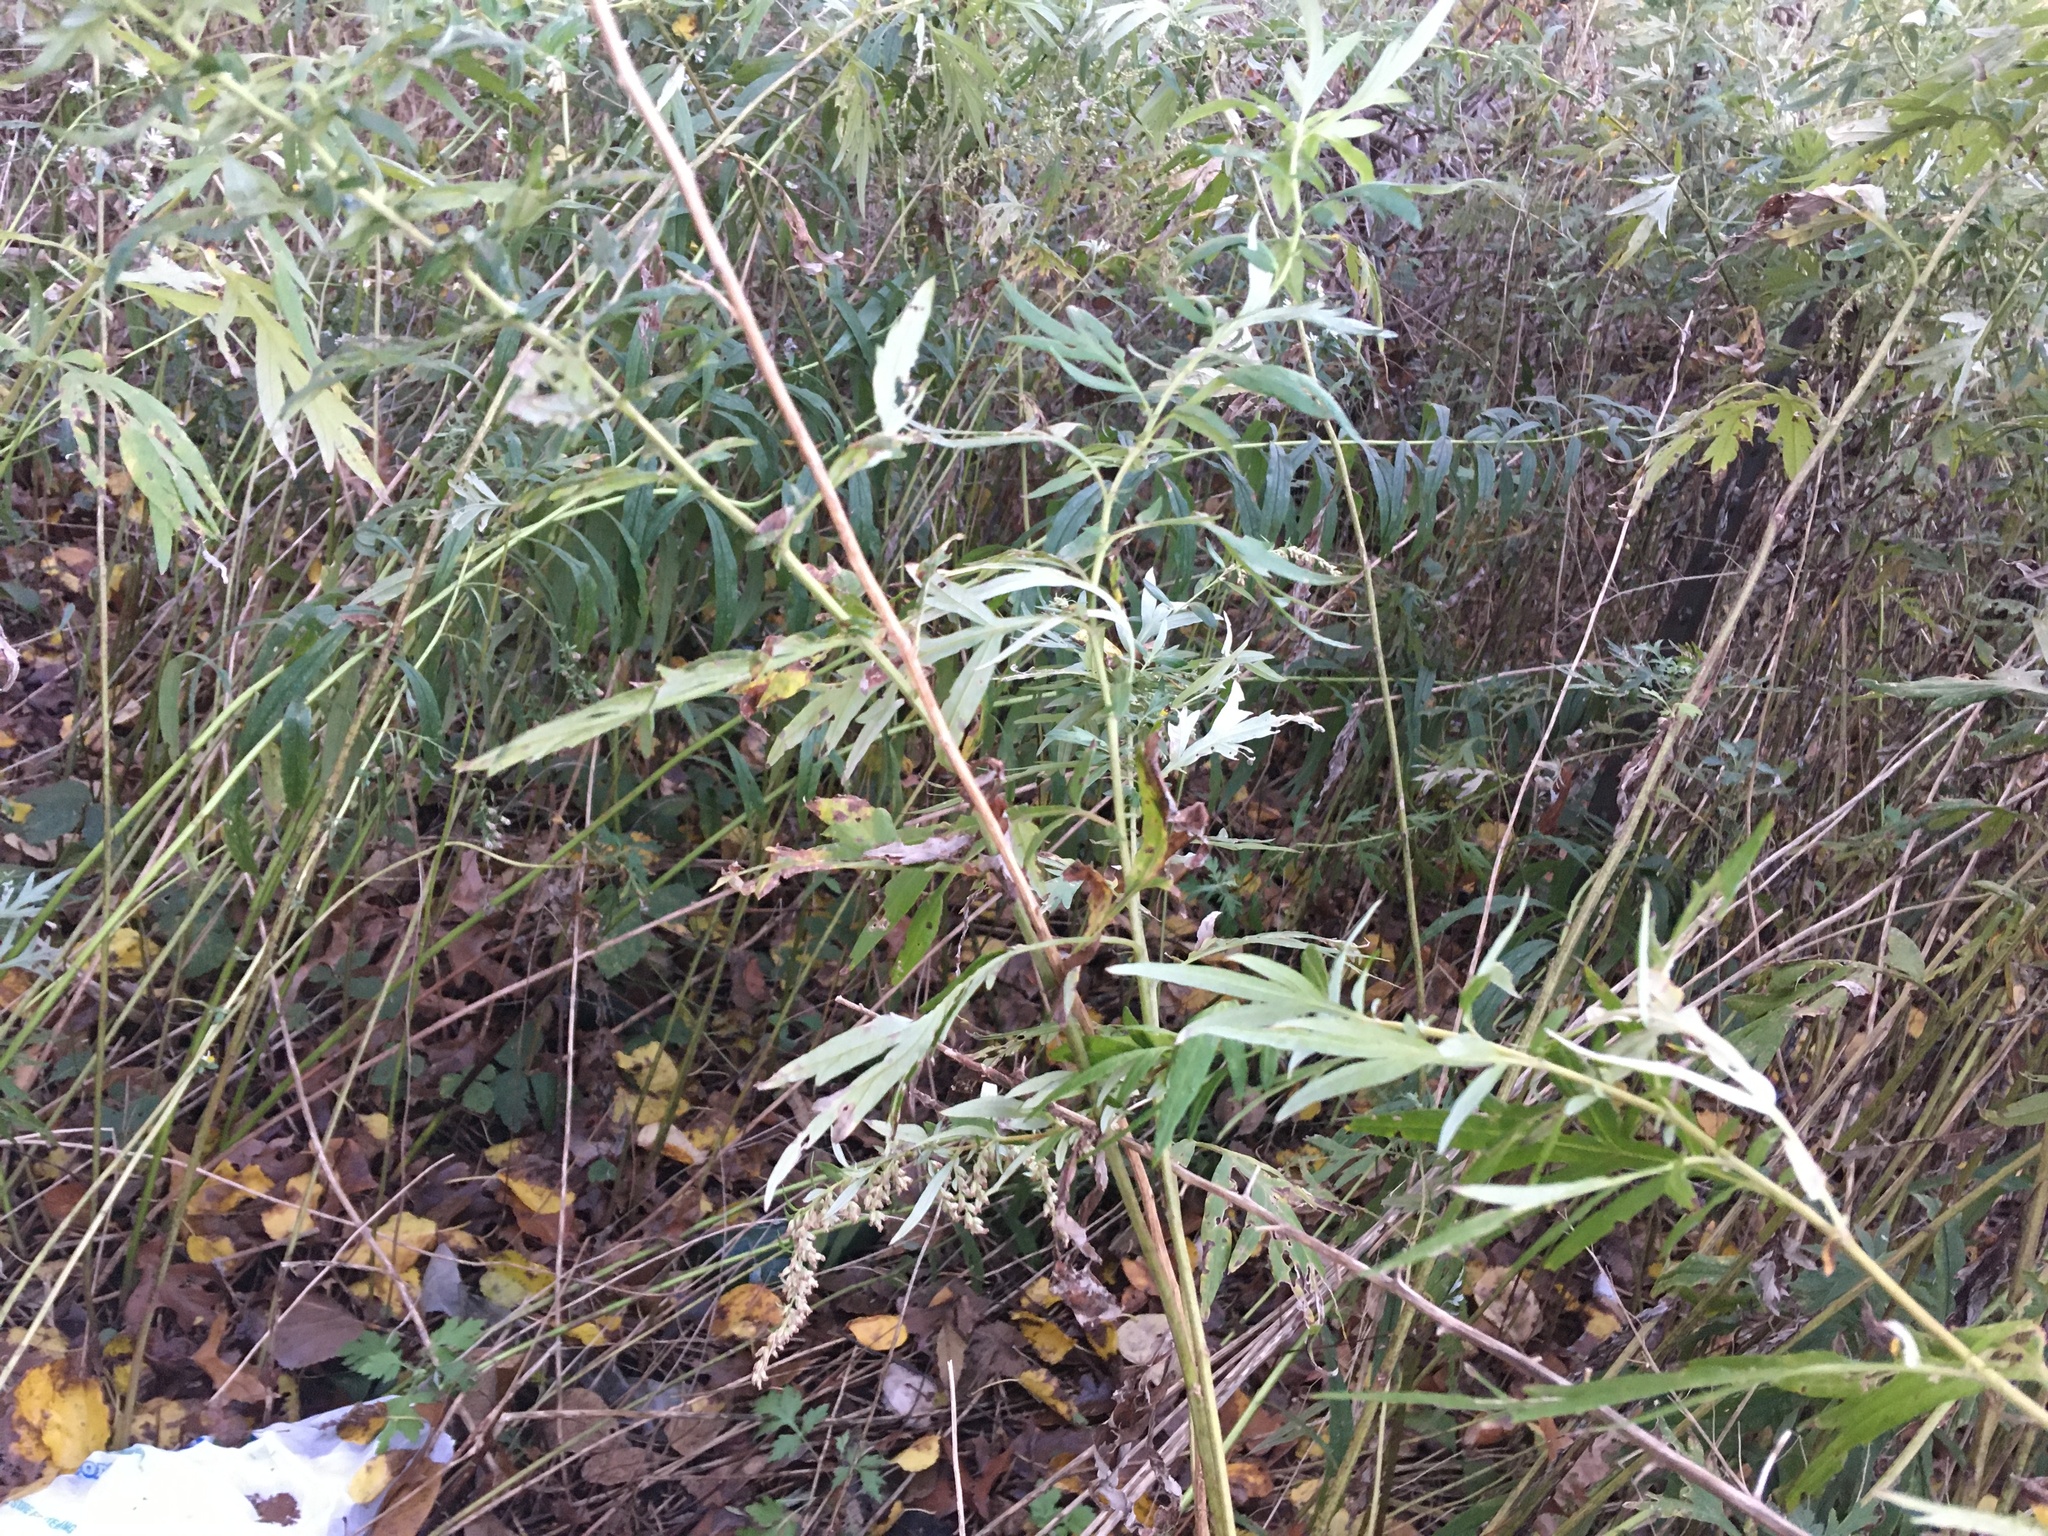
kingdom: Plantae
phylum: Tracheophyta
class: Magnoliopsida
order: Asterales
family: Asteraceae
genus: Artemisia
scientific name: Artemisia vulgaris
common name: Mugwort
